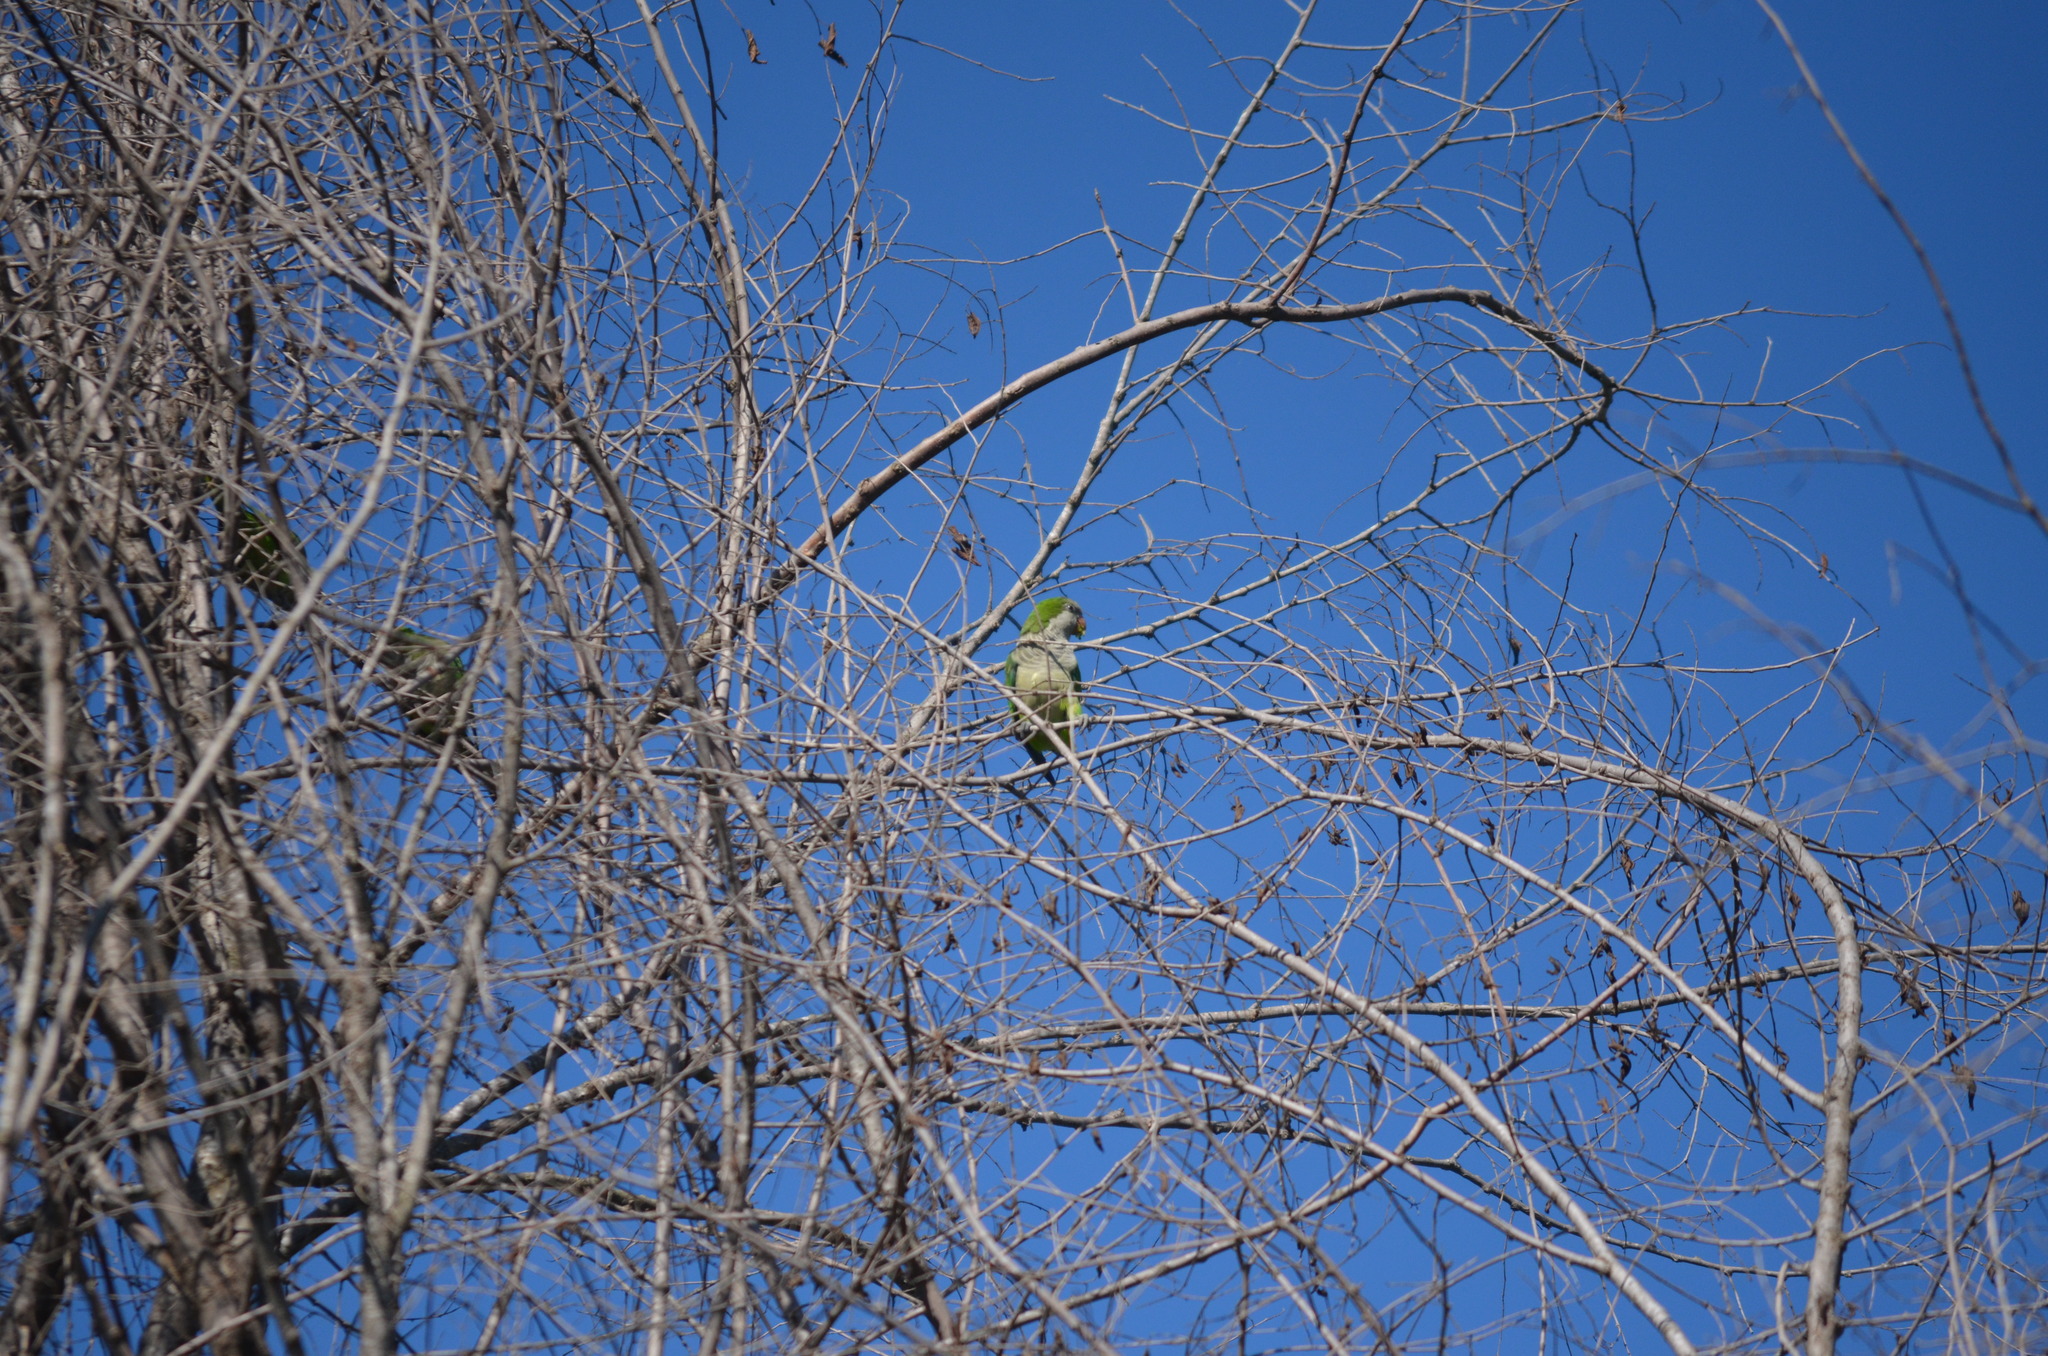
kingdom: Animalia
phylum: Chordata
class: Aves
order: Psittaciformes
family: Psittacidae
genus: Myiopsitta
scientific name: Myiopsitta monachus
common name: Monk parakeet
